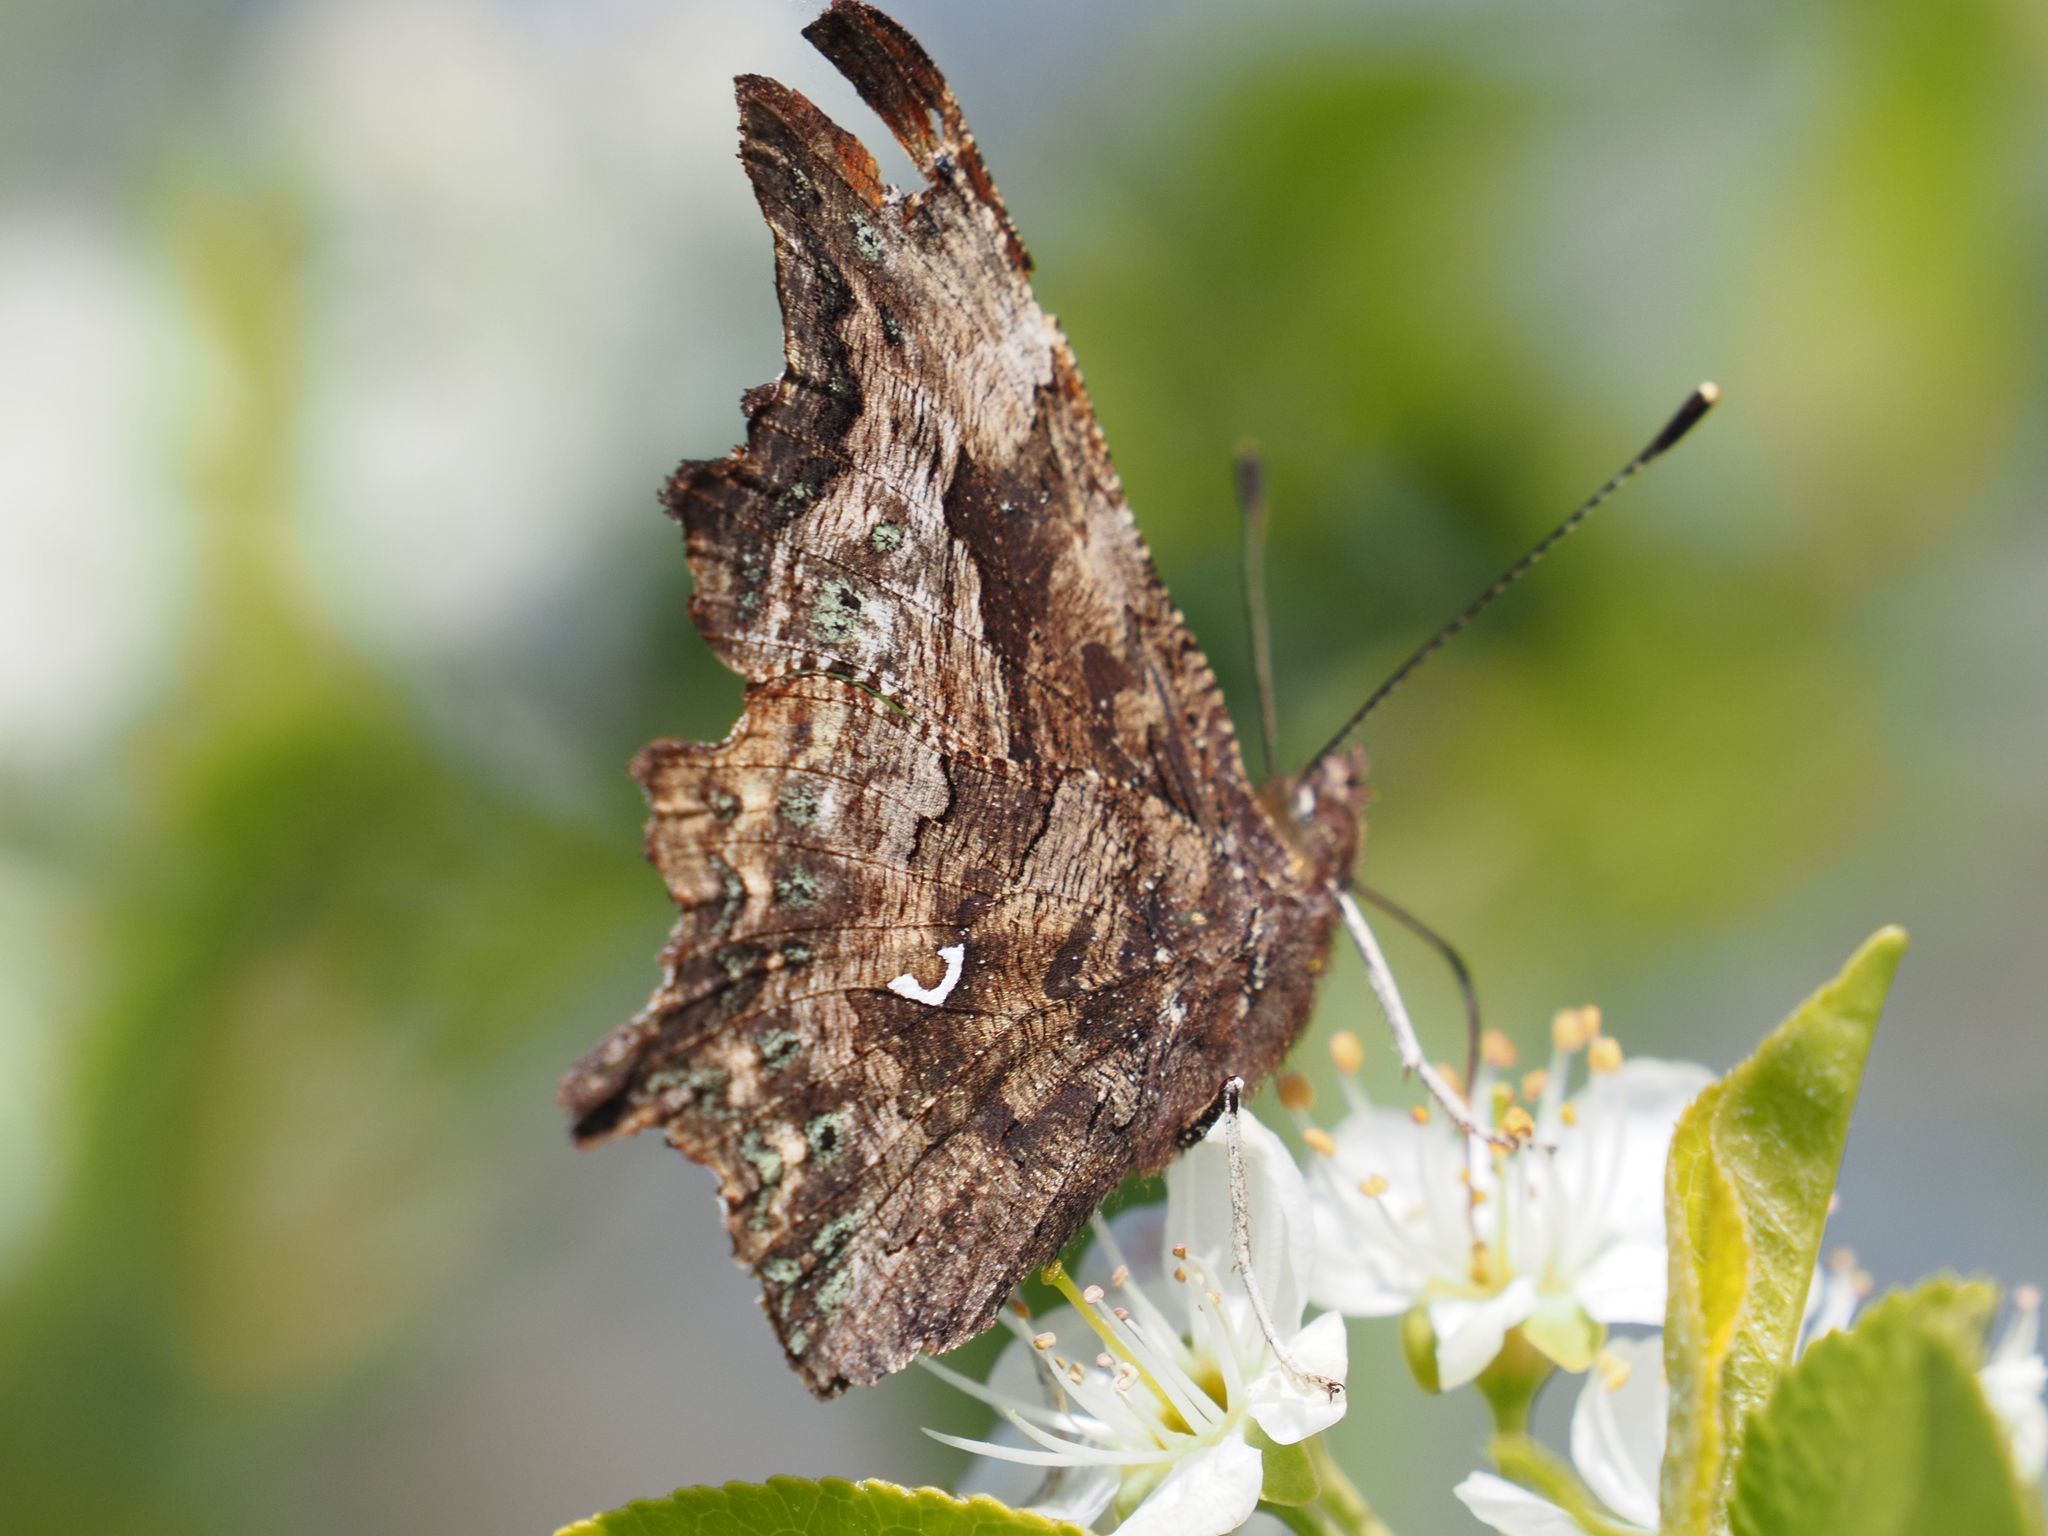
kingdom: Animalia
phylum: Arthropoda
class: Insecta
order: Lepidoptera
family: Nymphalidae
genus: Polygonia
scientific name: Polygonia c-album
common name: Comma
